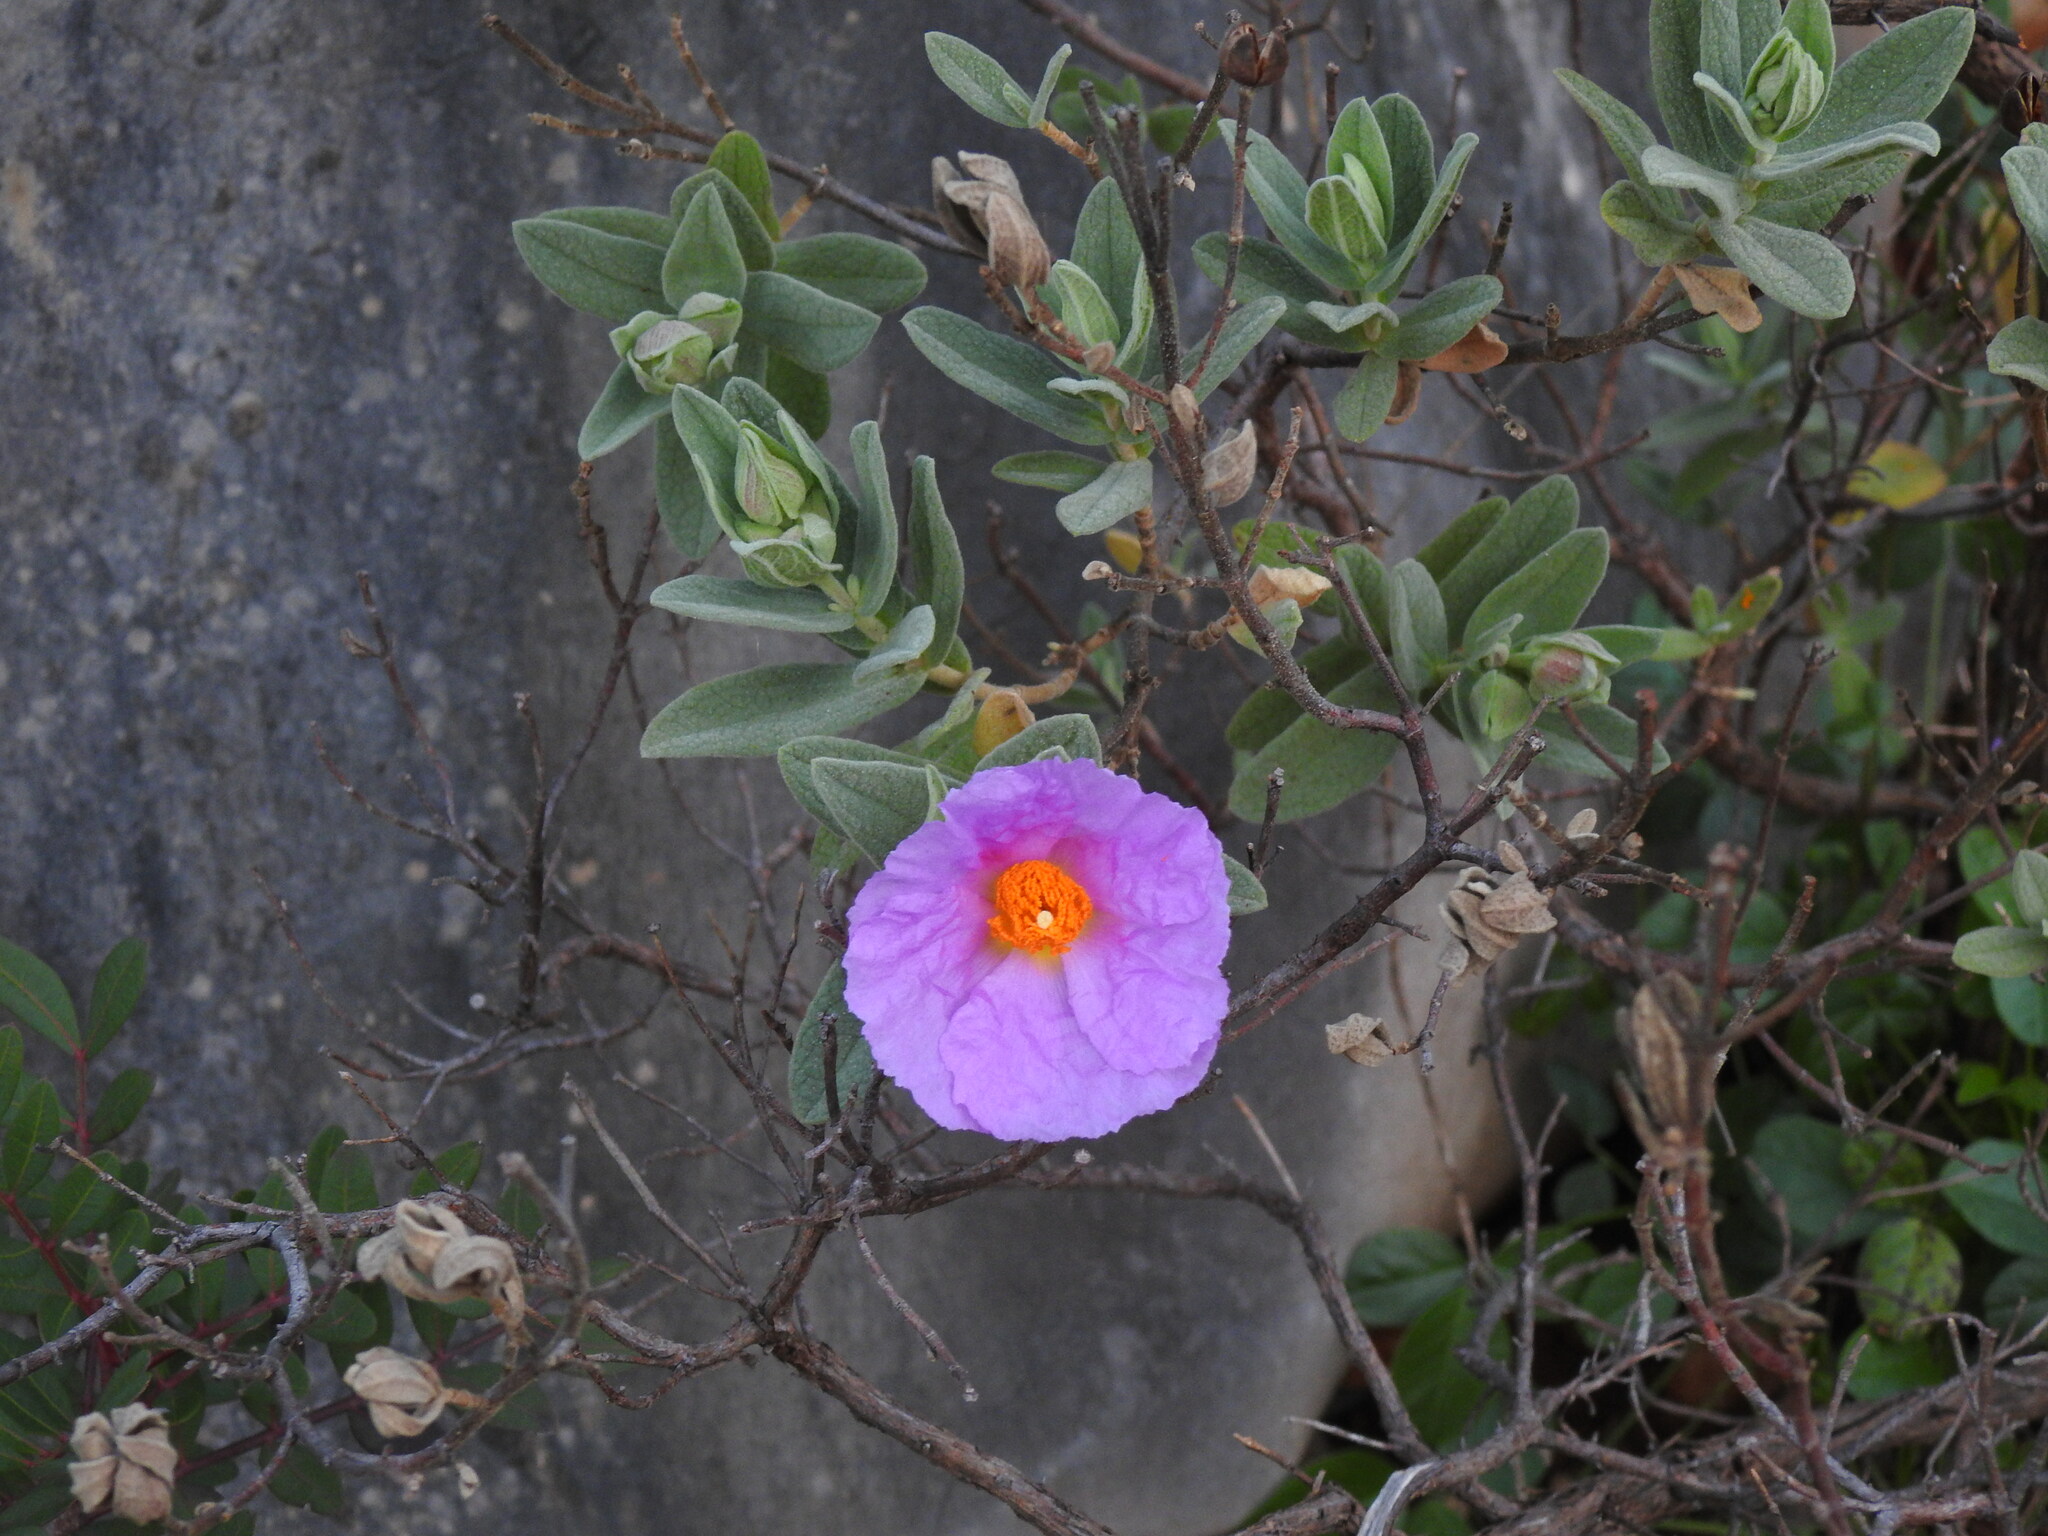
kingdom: Plantae
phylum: Tracheophyta
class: Magnoliopsida
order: Malvales
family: Cistaceae
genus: Cistus
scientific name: Cistus albidus
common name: White-leaf rock-rose
